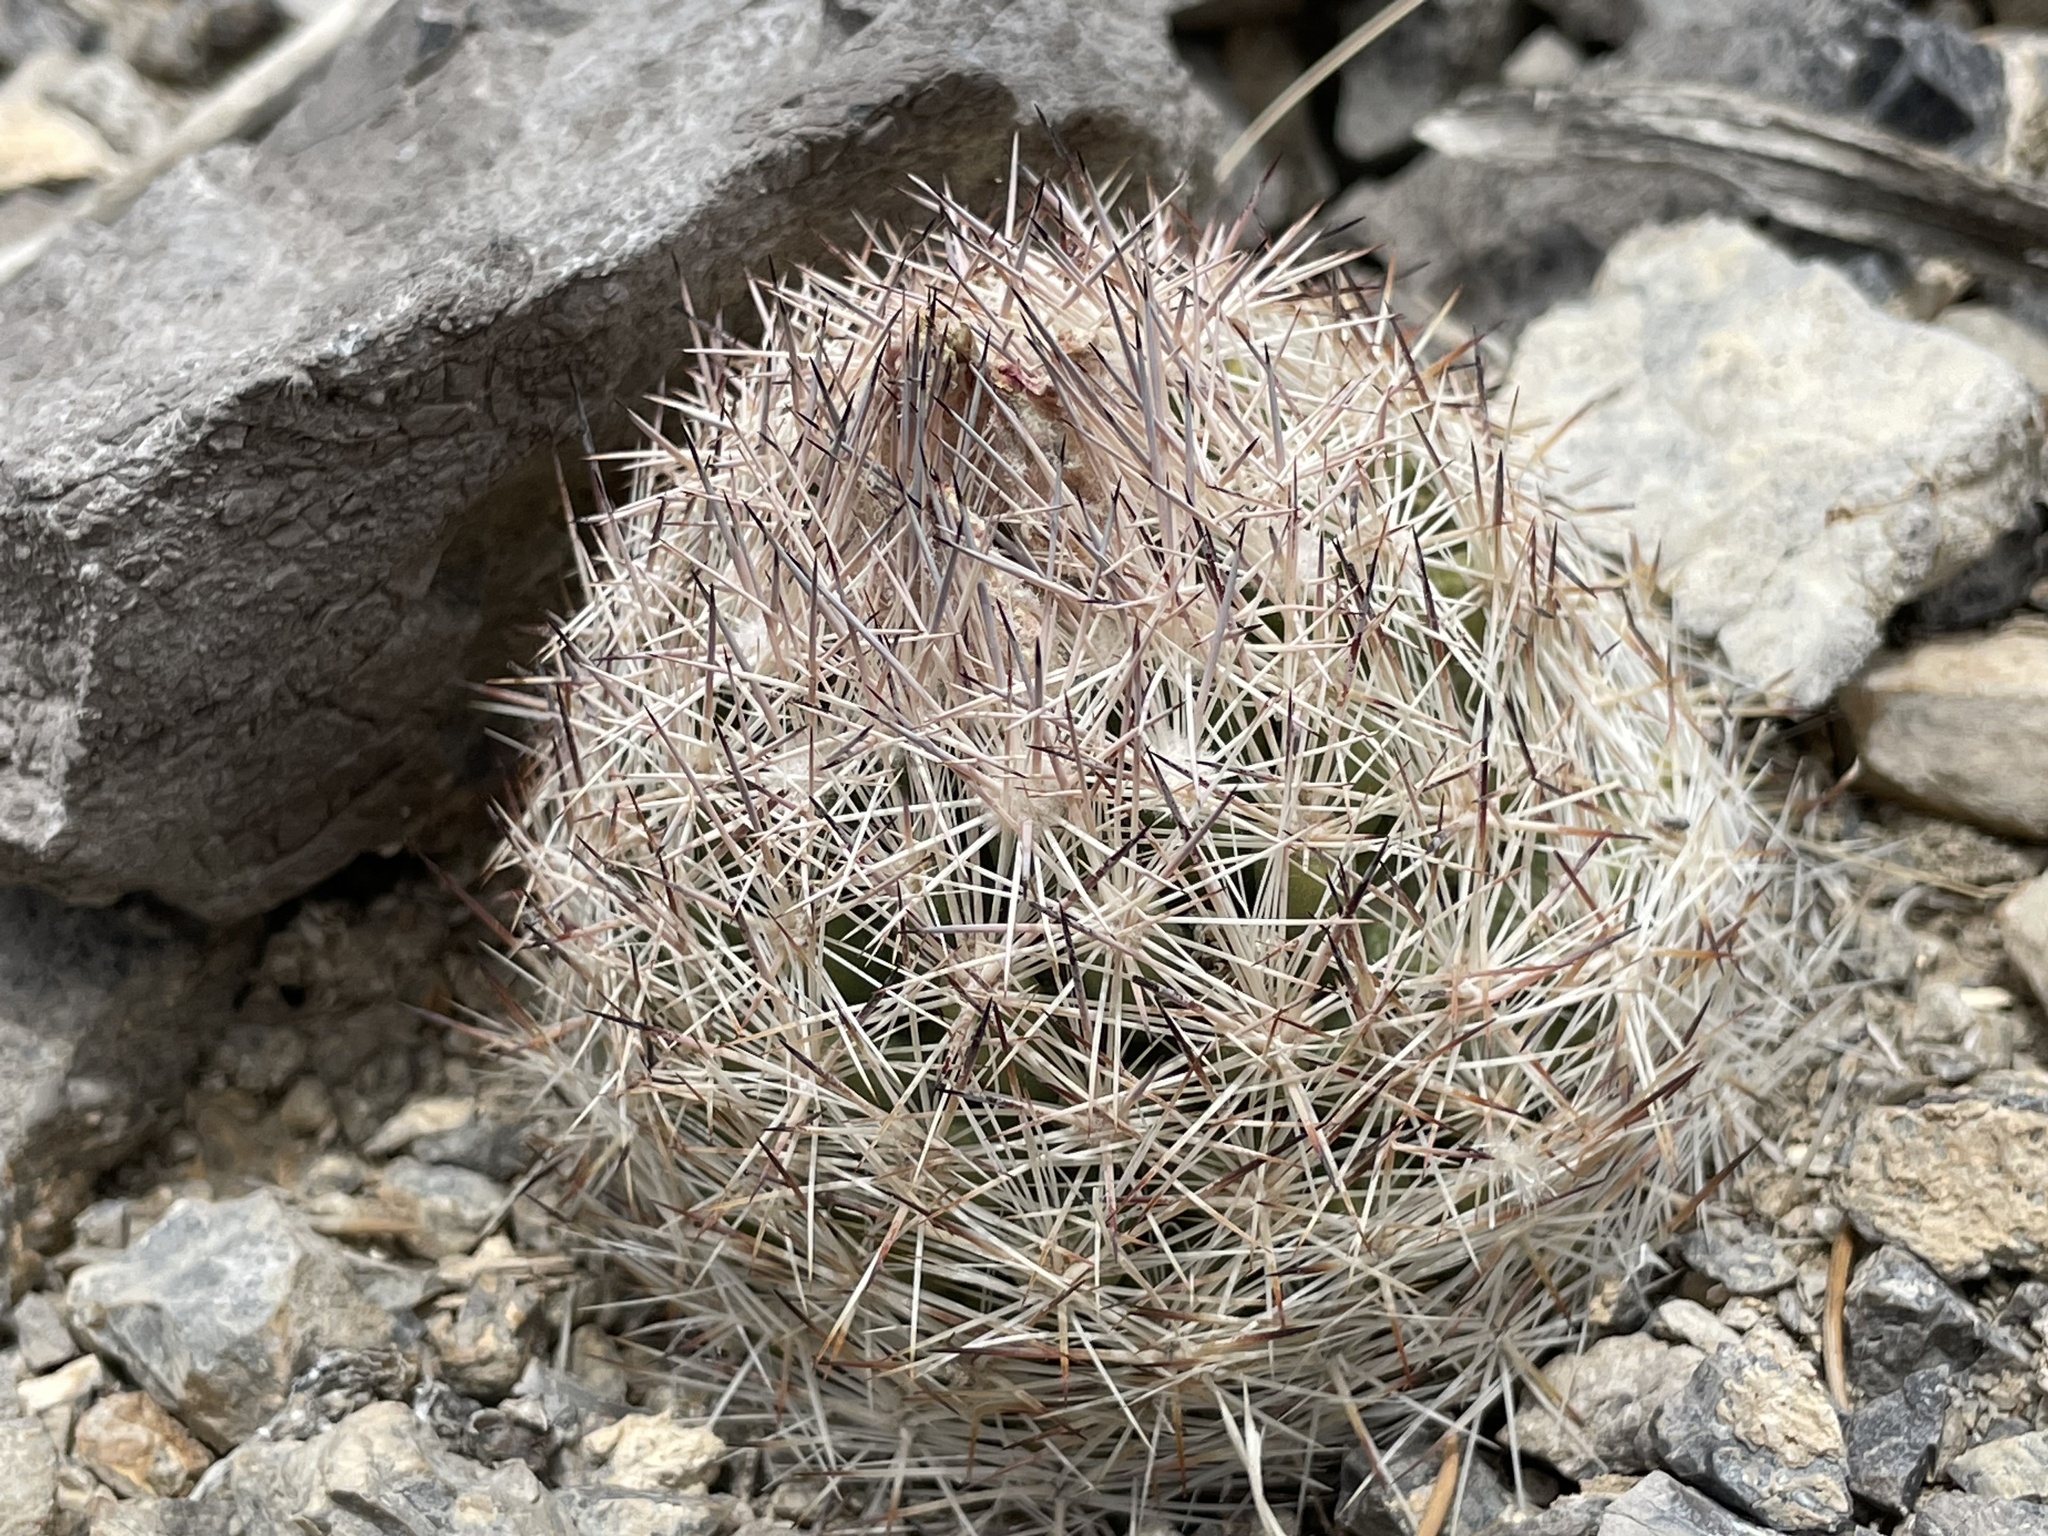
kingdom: Plantae
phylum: Tracheophyta
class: Magnoliopsida
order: Caryophyllales
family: Cactaceae
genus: Pelecyphora
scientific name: Pelecyphora dasyacantha
